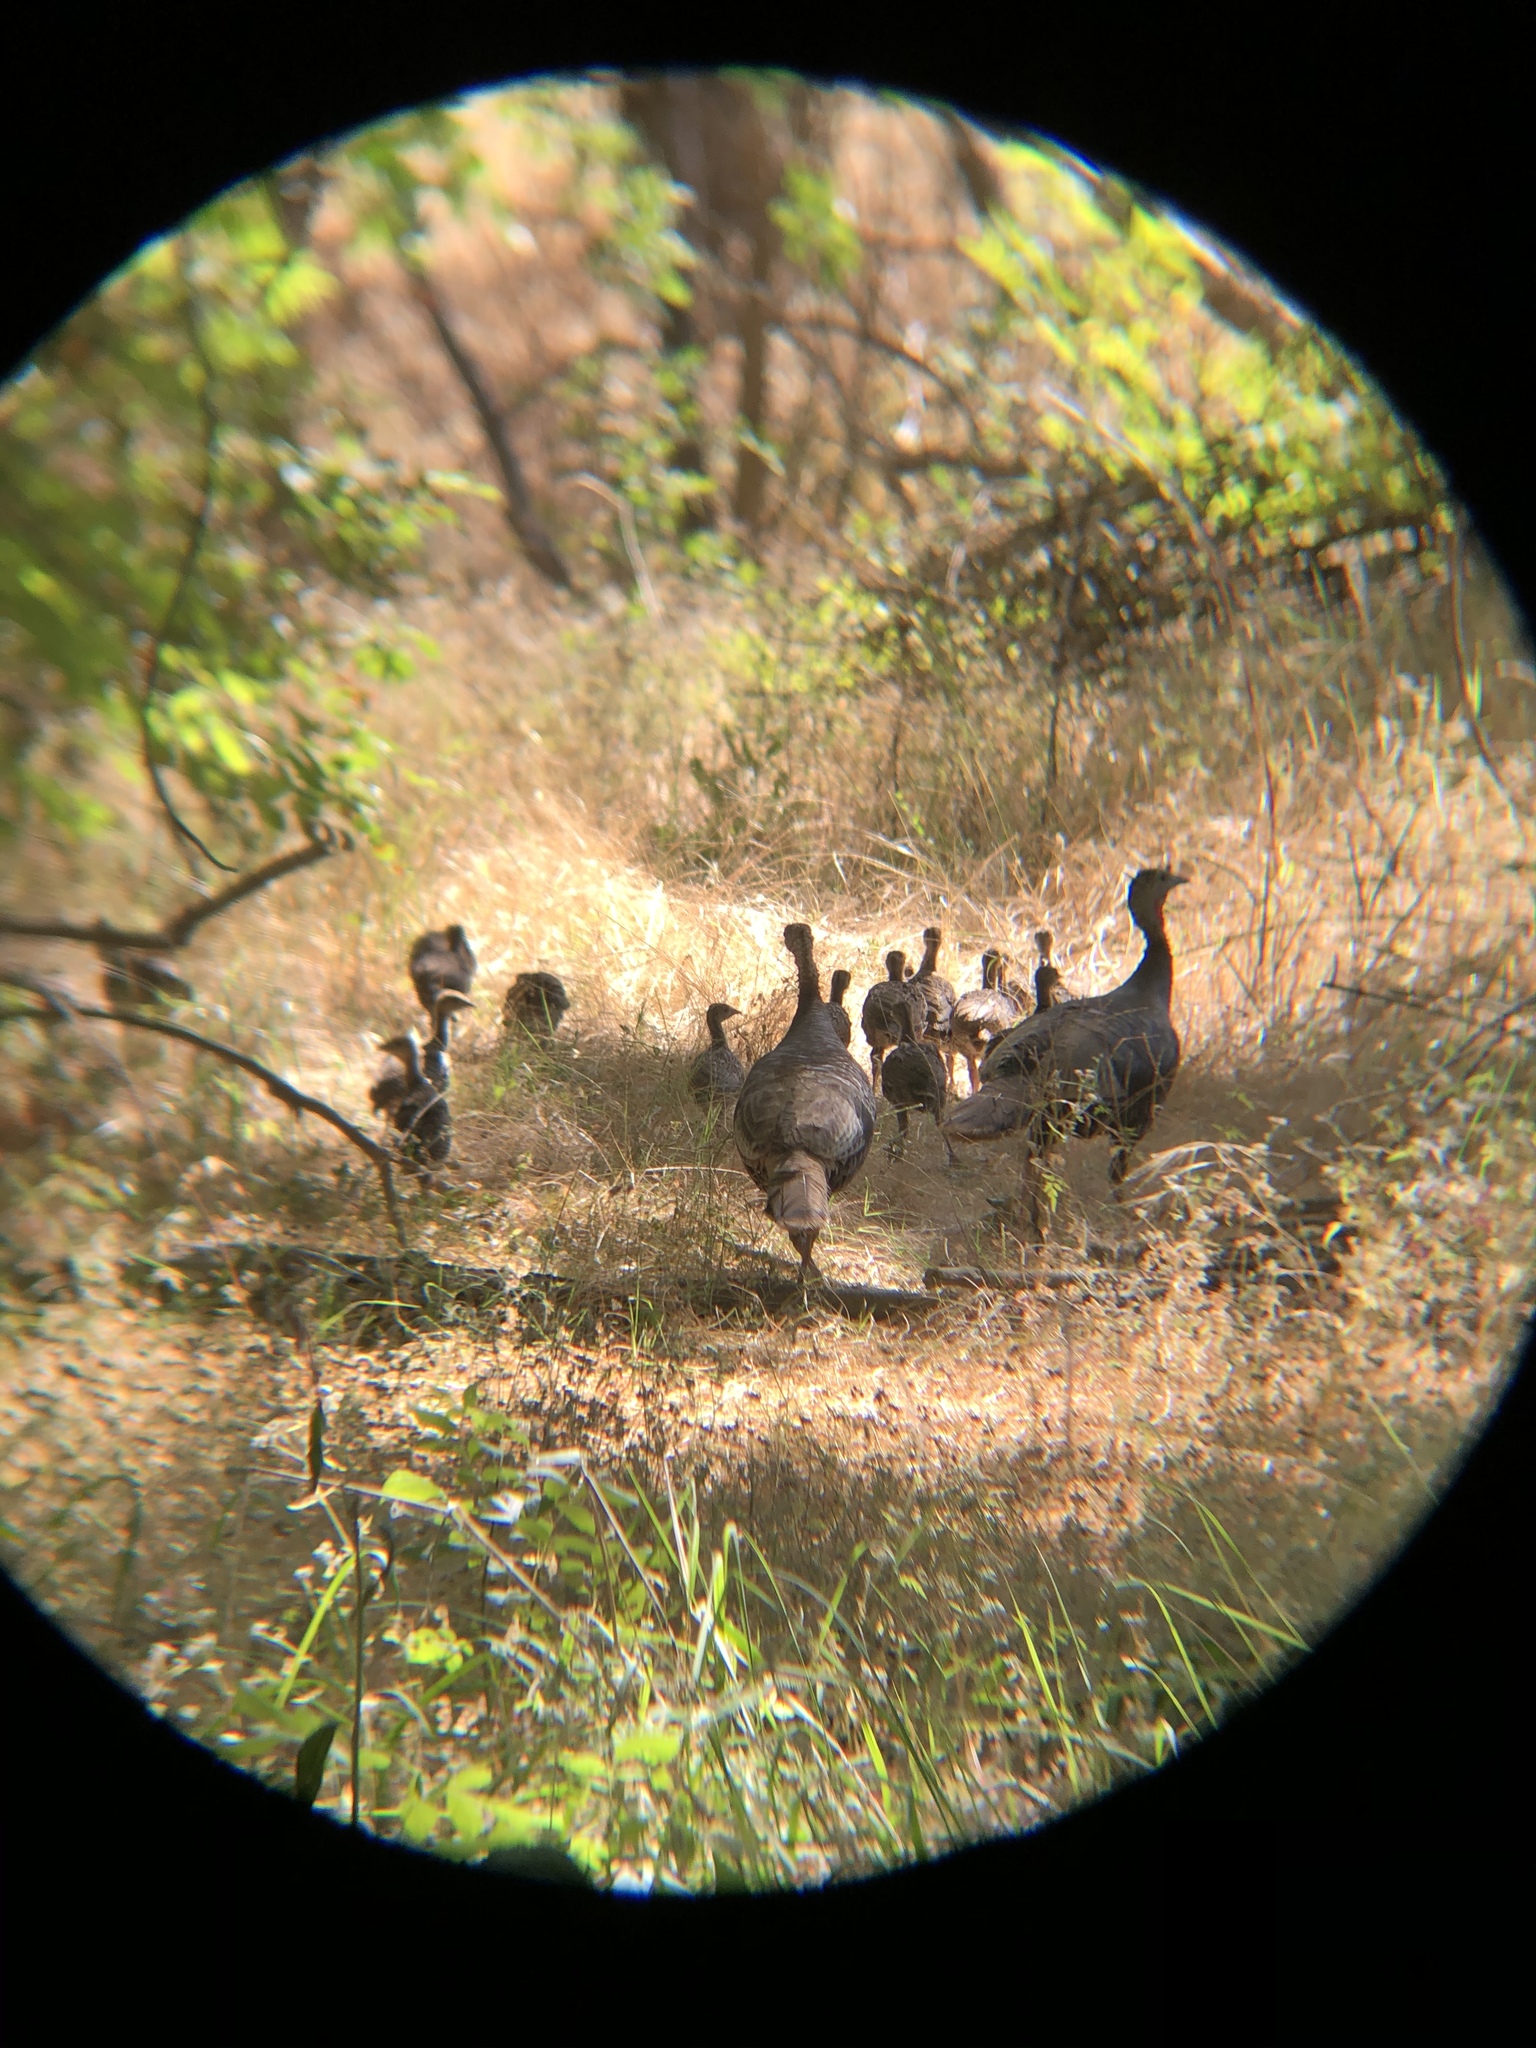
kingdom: Animalia
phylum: Chordata
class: Aves
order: Galliformes
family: Phasianidae
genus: Meleagris
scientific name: Meleagris gallopavo
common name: Wild turkey
